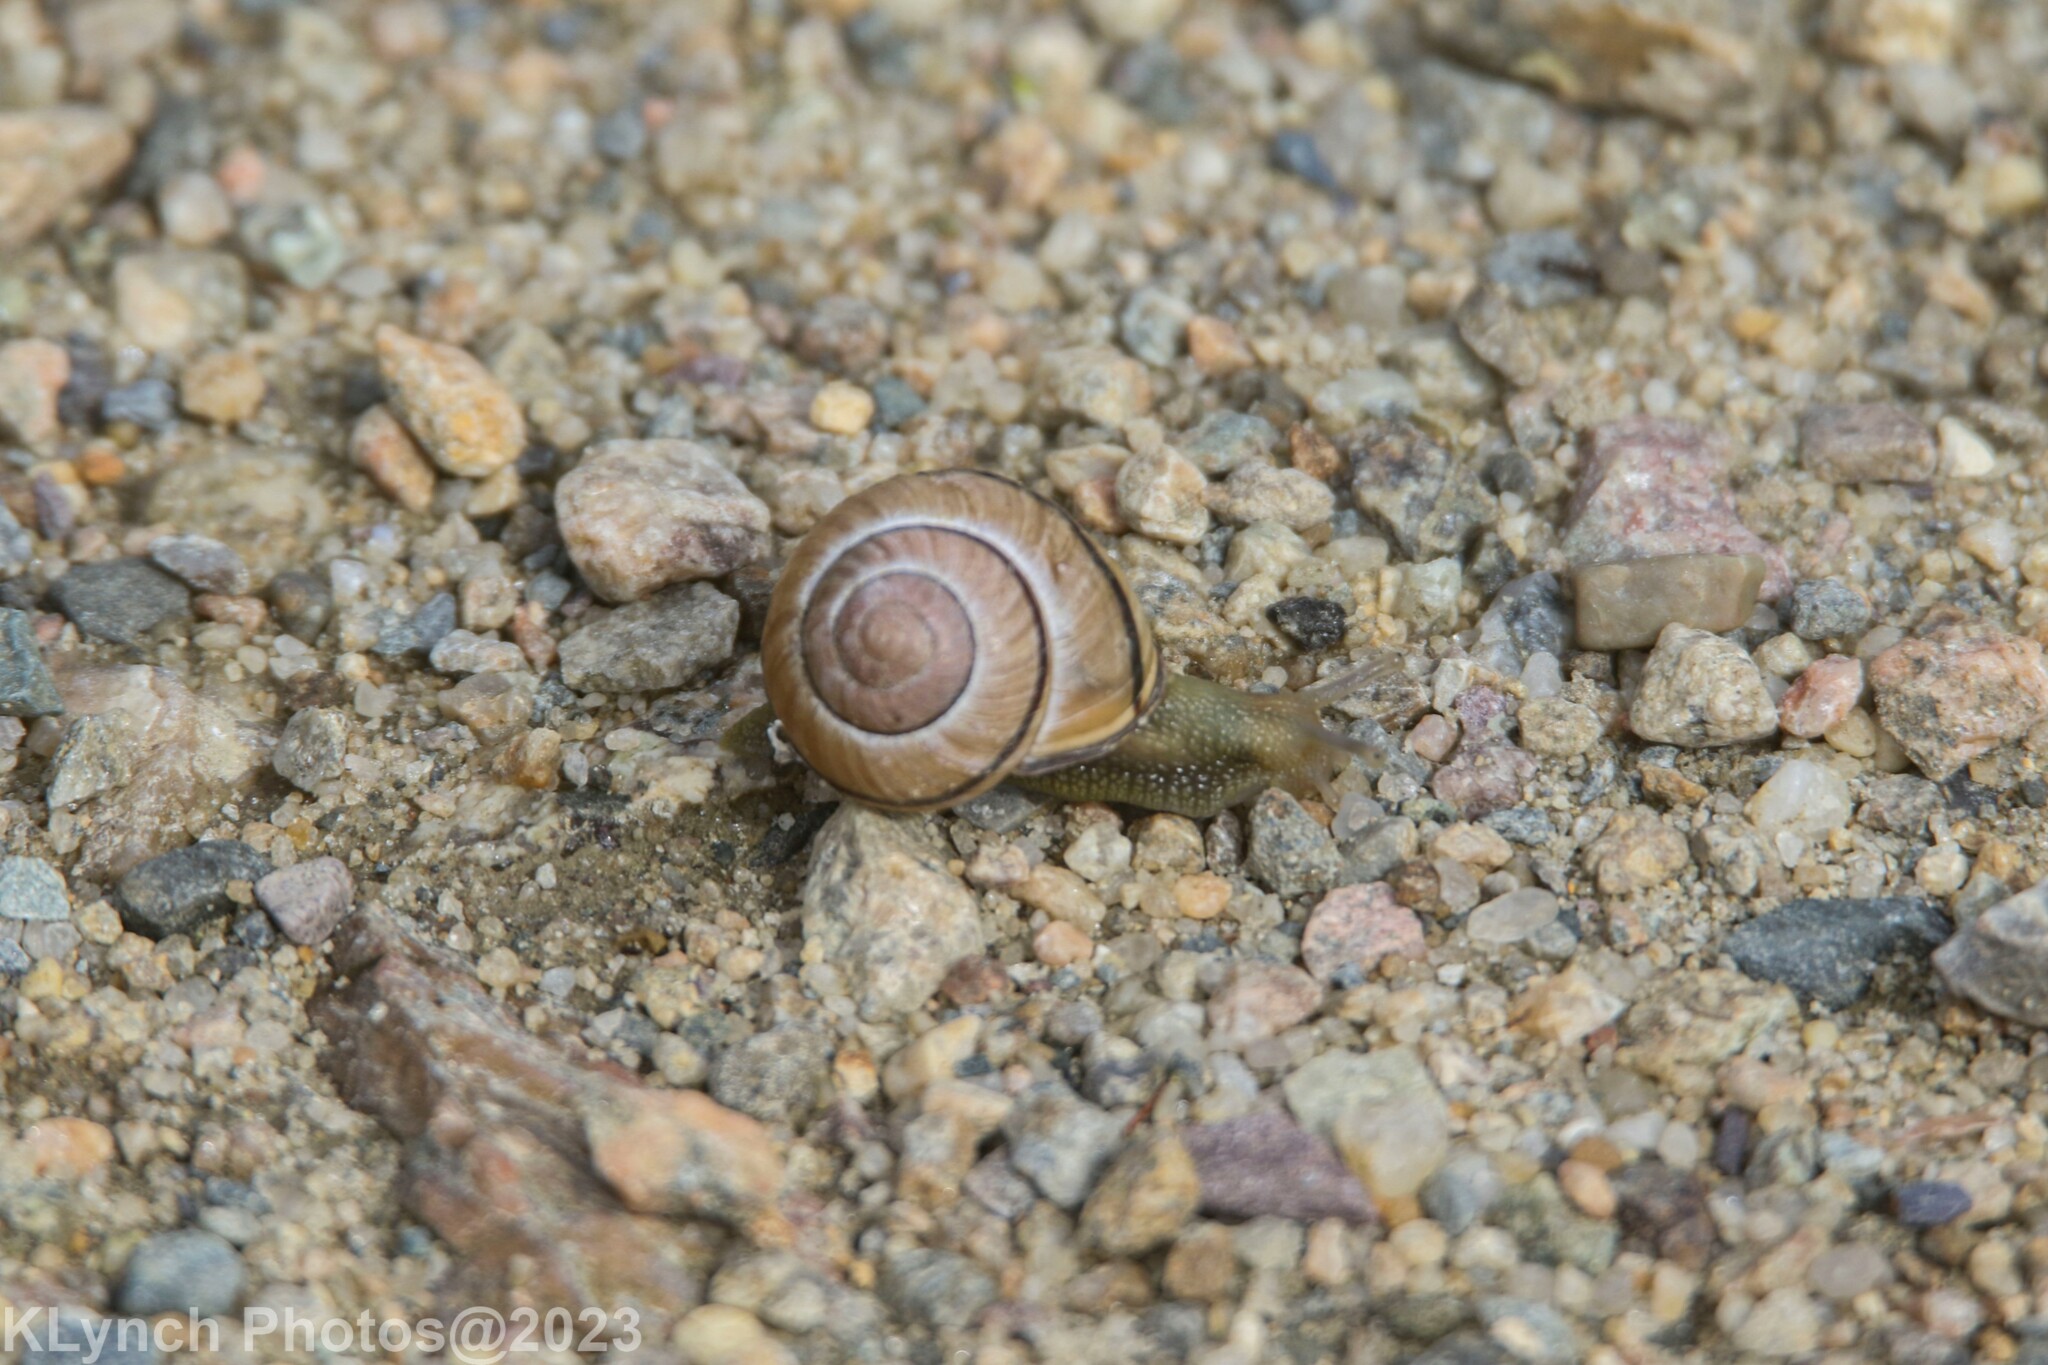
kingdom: Animalia
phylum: Mollusca
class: Gastropoda
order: Stylommatophora
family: Helicidae
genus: Cepaea
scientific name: Cepaea nemoralis
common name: Grovesnail
